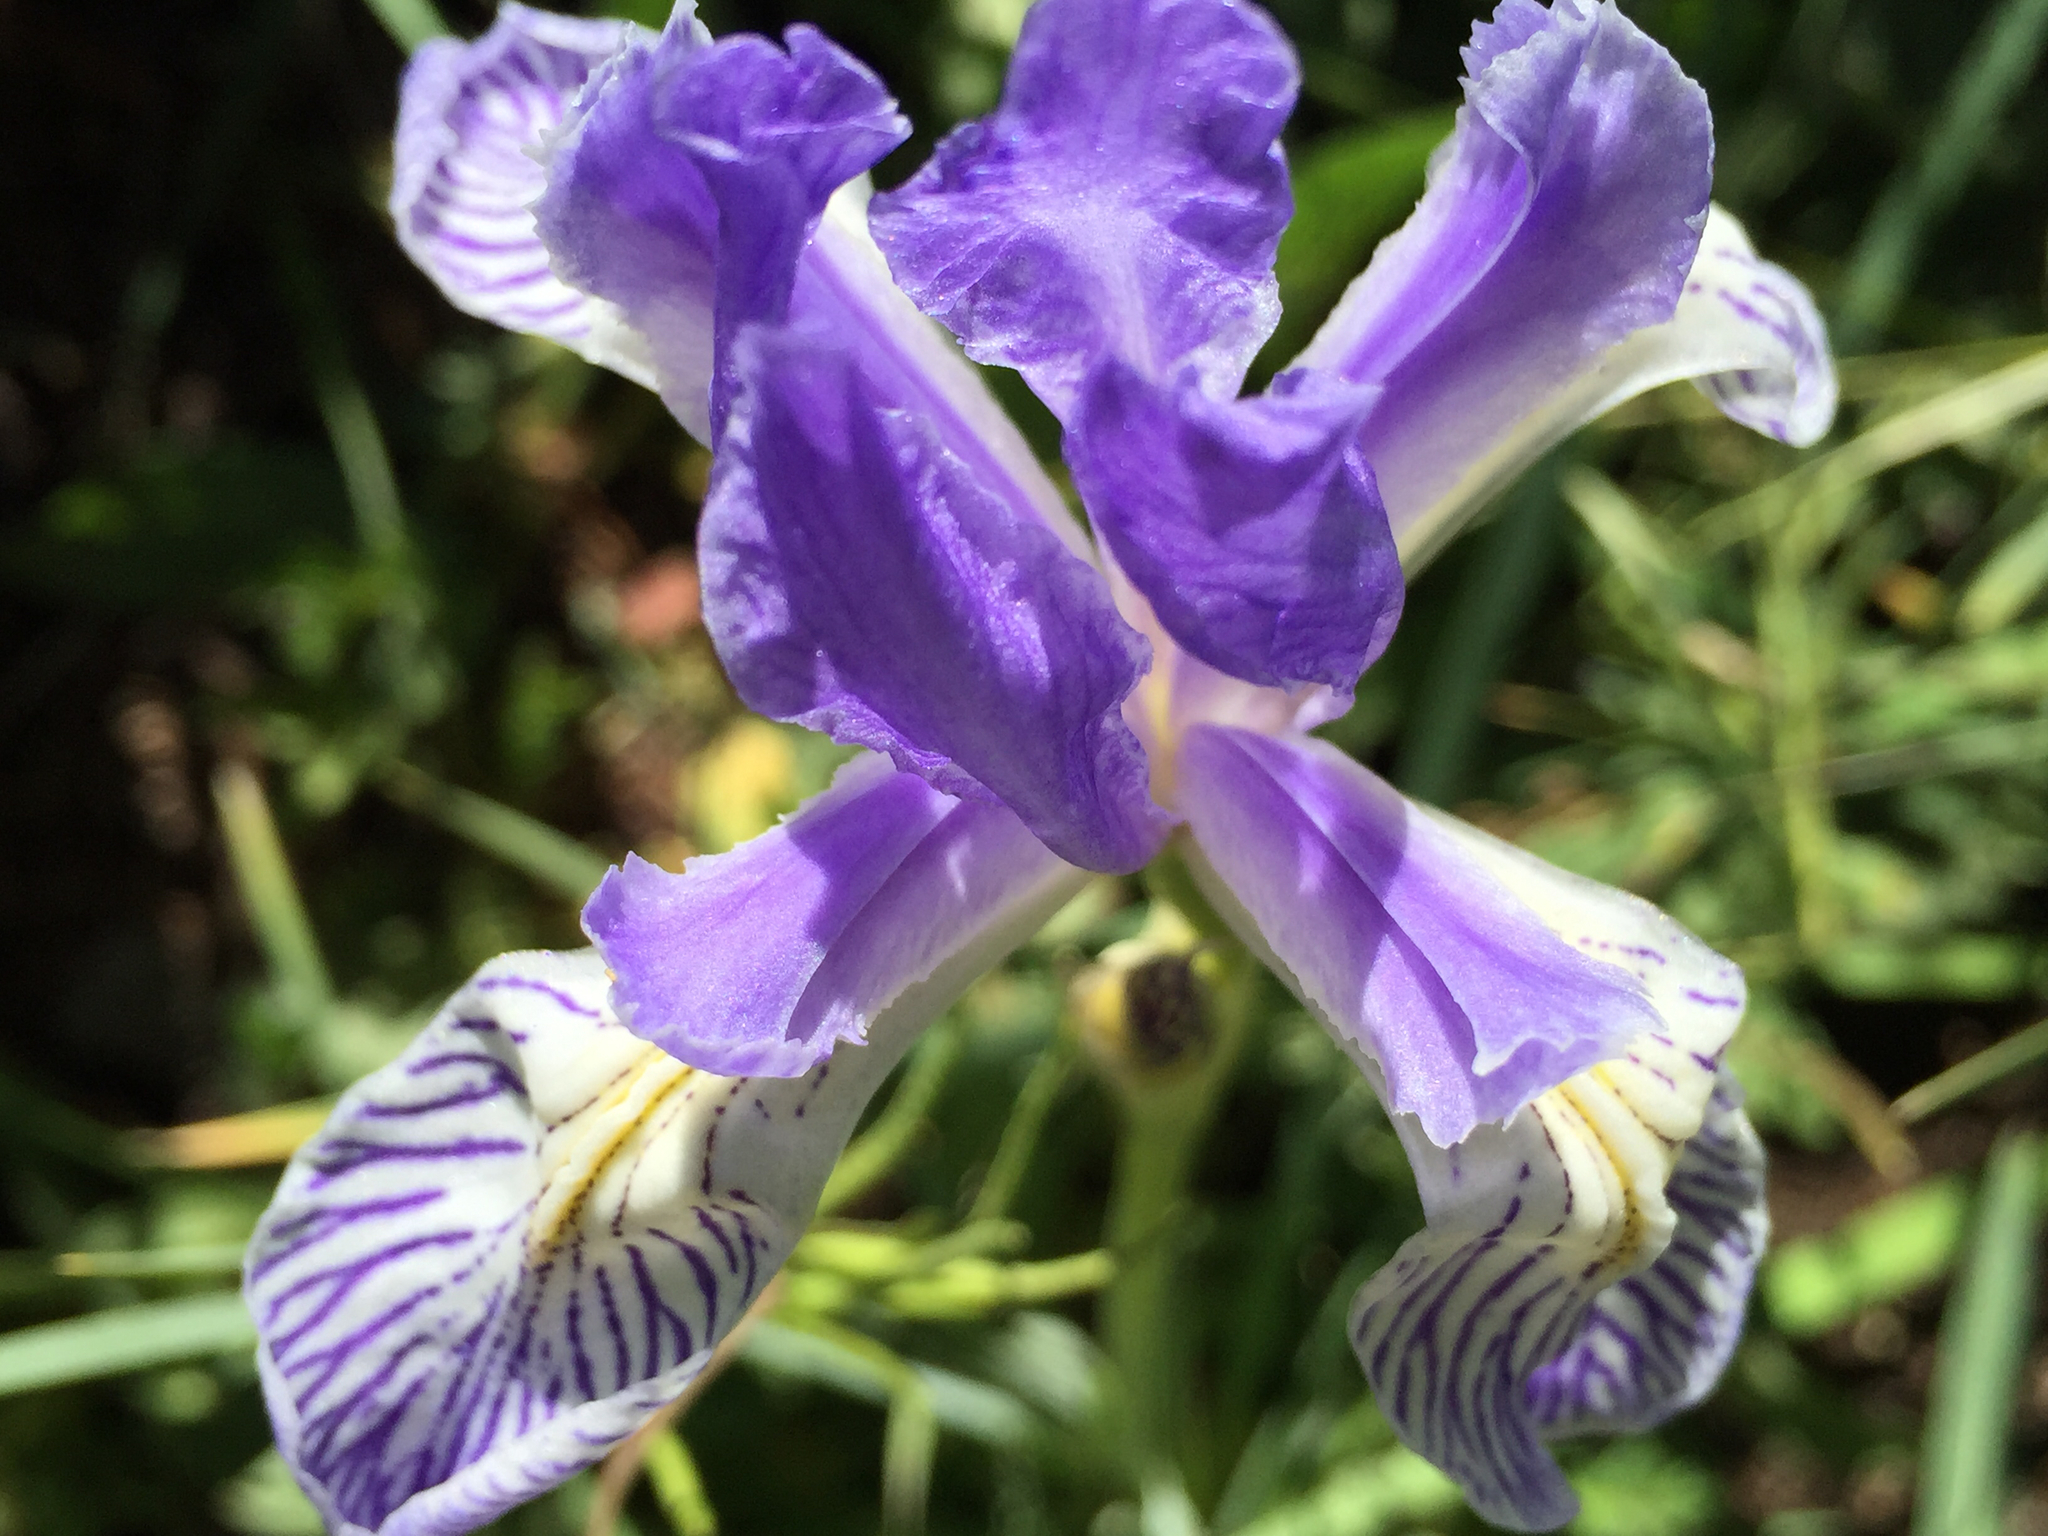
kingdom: Plantae
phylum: Tracheophyta
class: Liliopsida
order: Asparagales
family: Iridaceae
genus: Iris
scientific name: Iris missouriensis
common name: Rocky mountain iris
